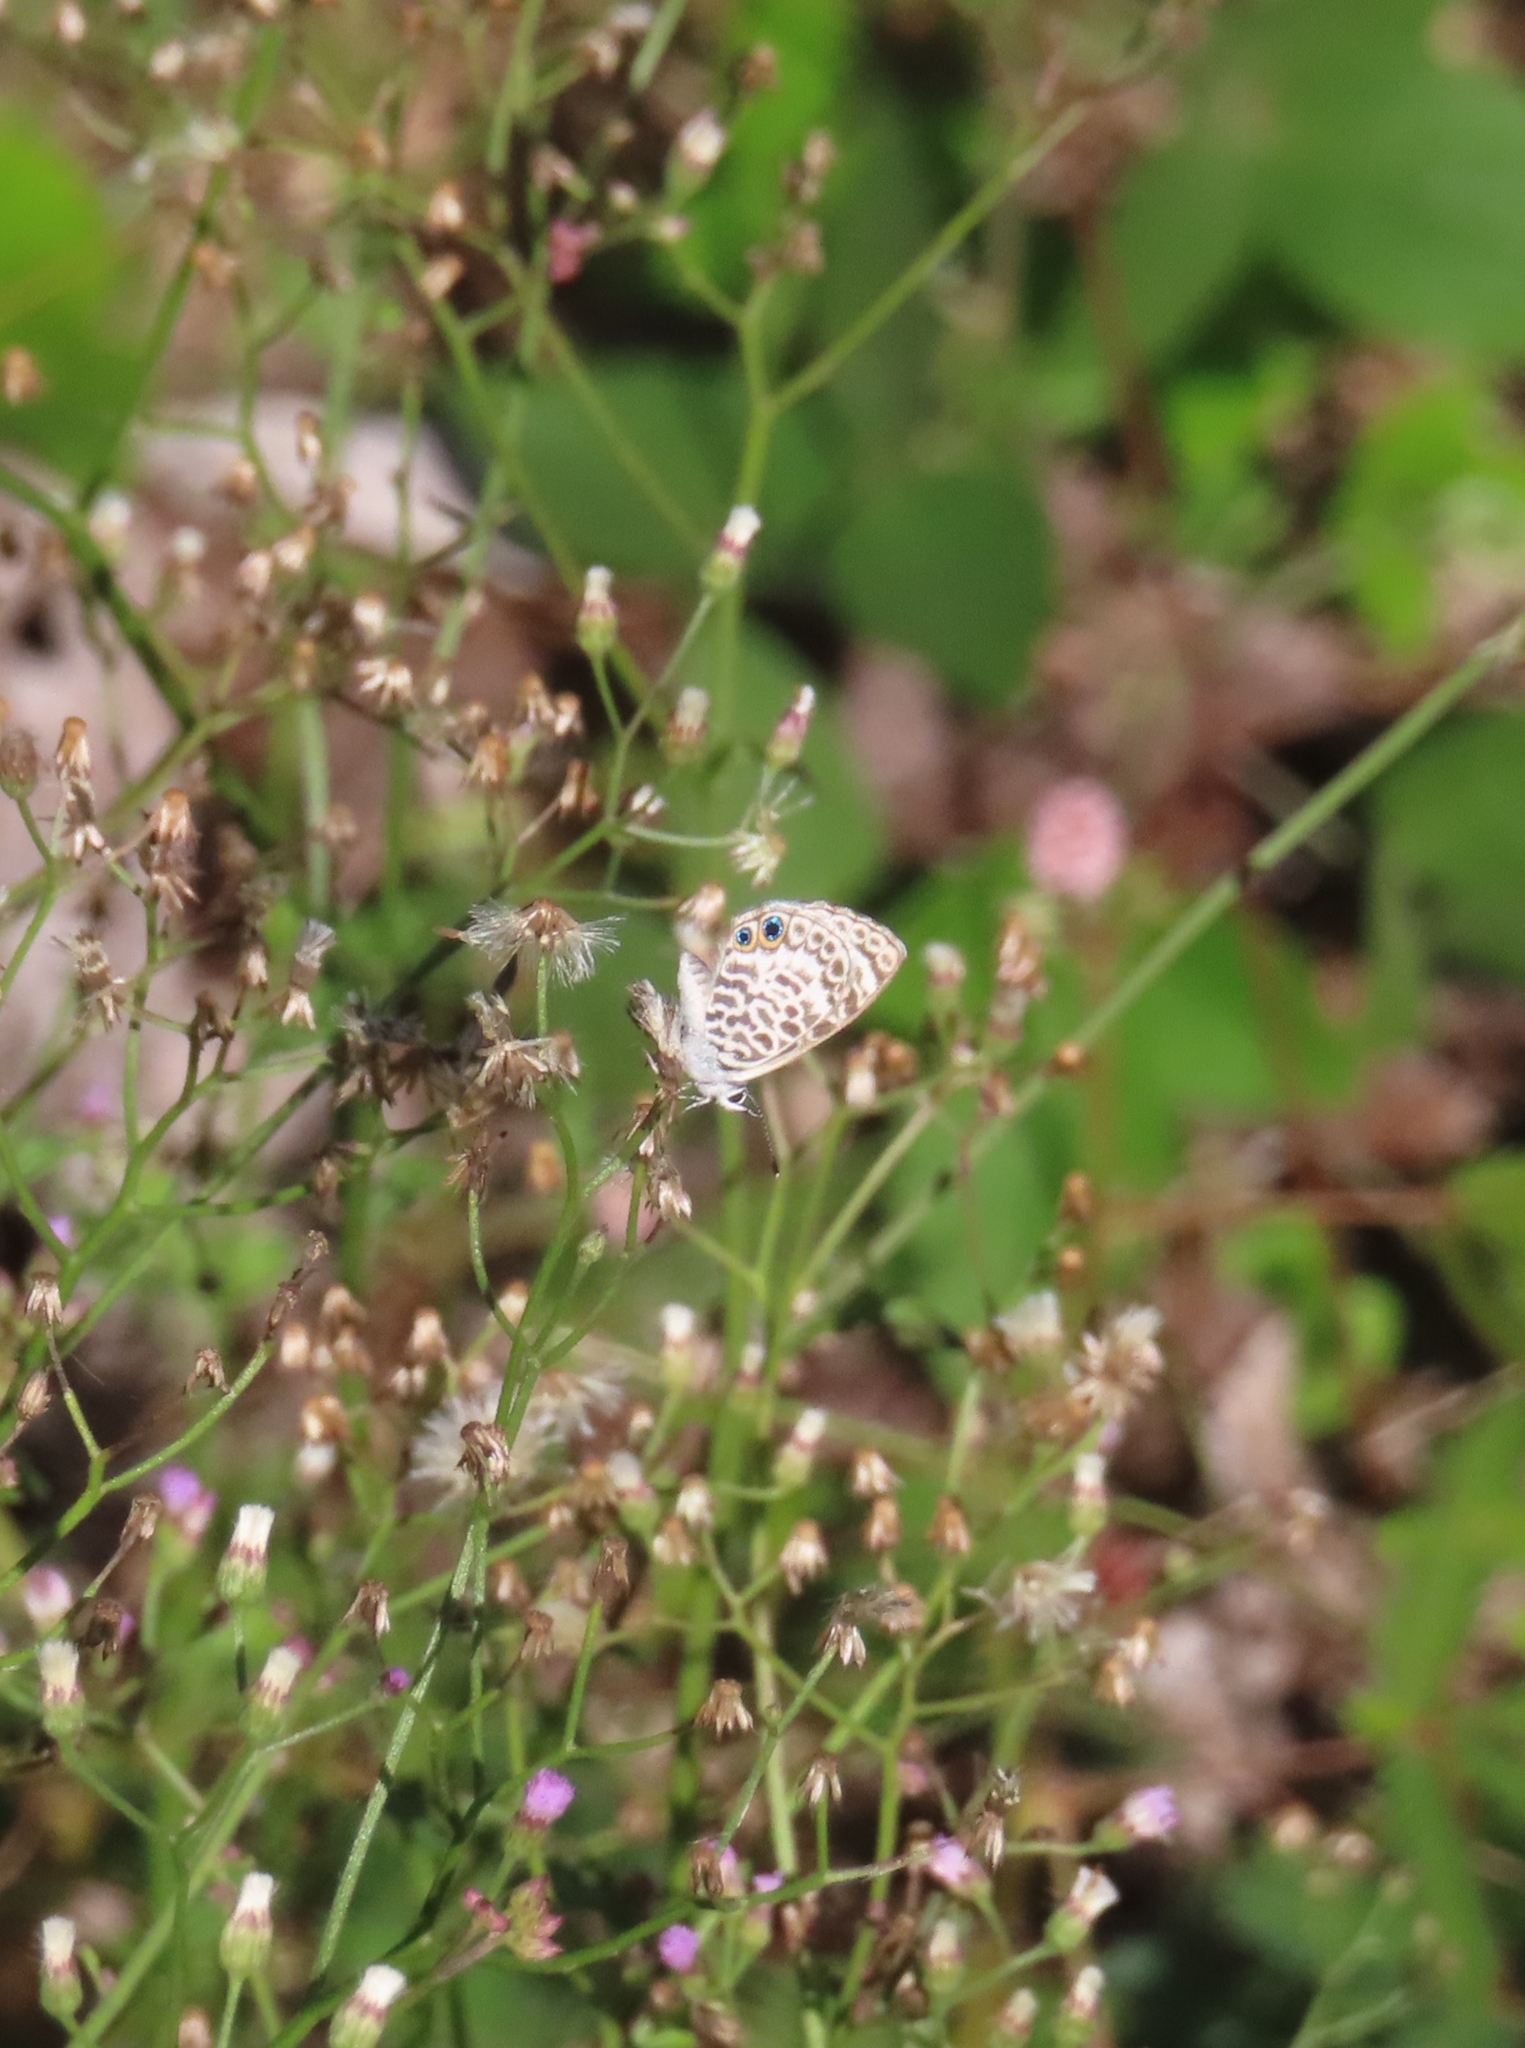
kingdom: Animalia
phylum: Arthropoda
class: Insecta
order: Lepidoptera
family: Lycaenidae
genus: Leptotes
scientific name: Leptotes cassius
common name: Cassius blue
